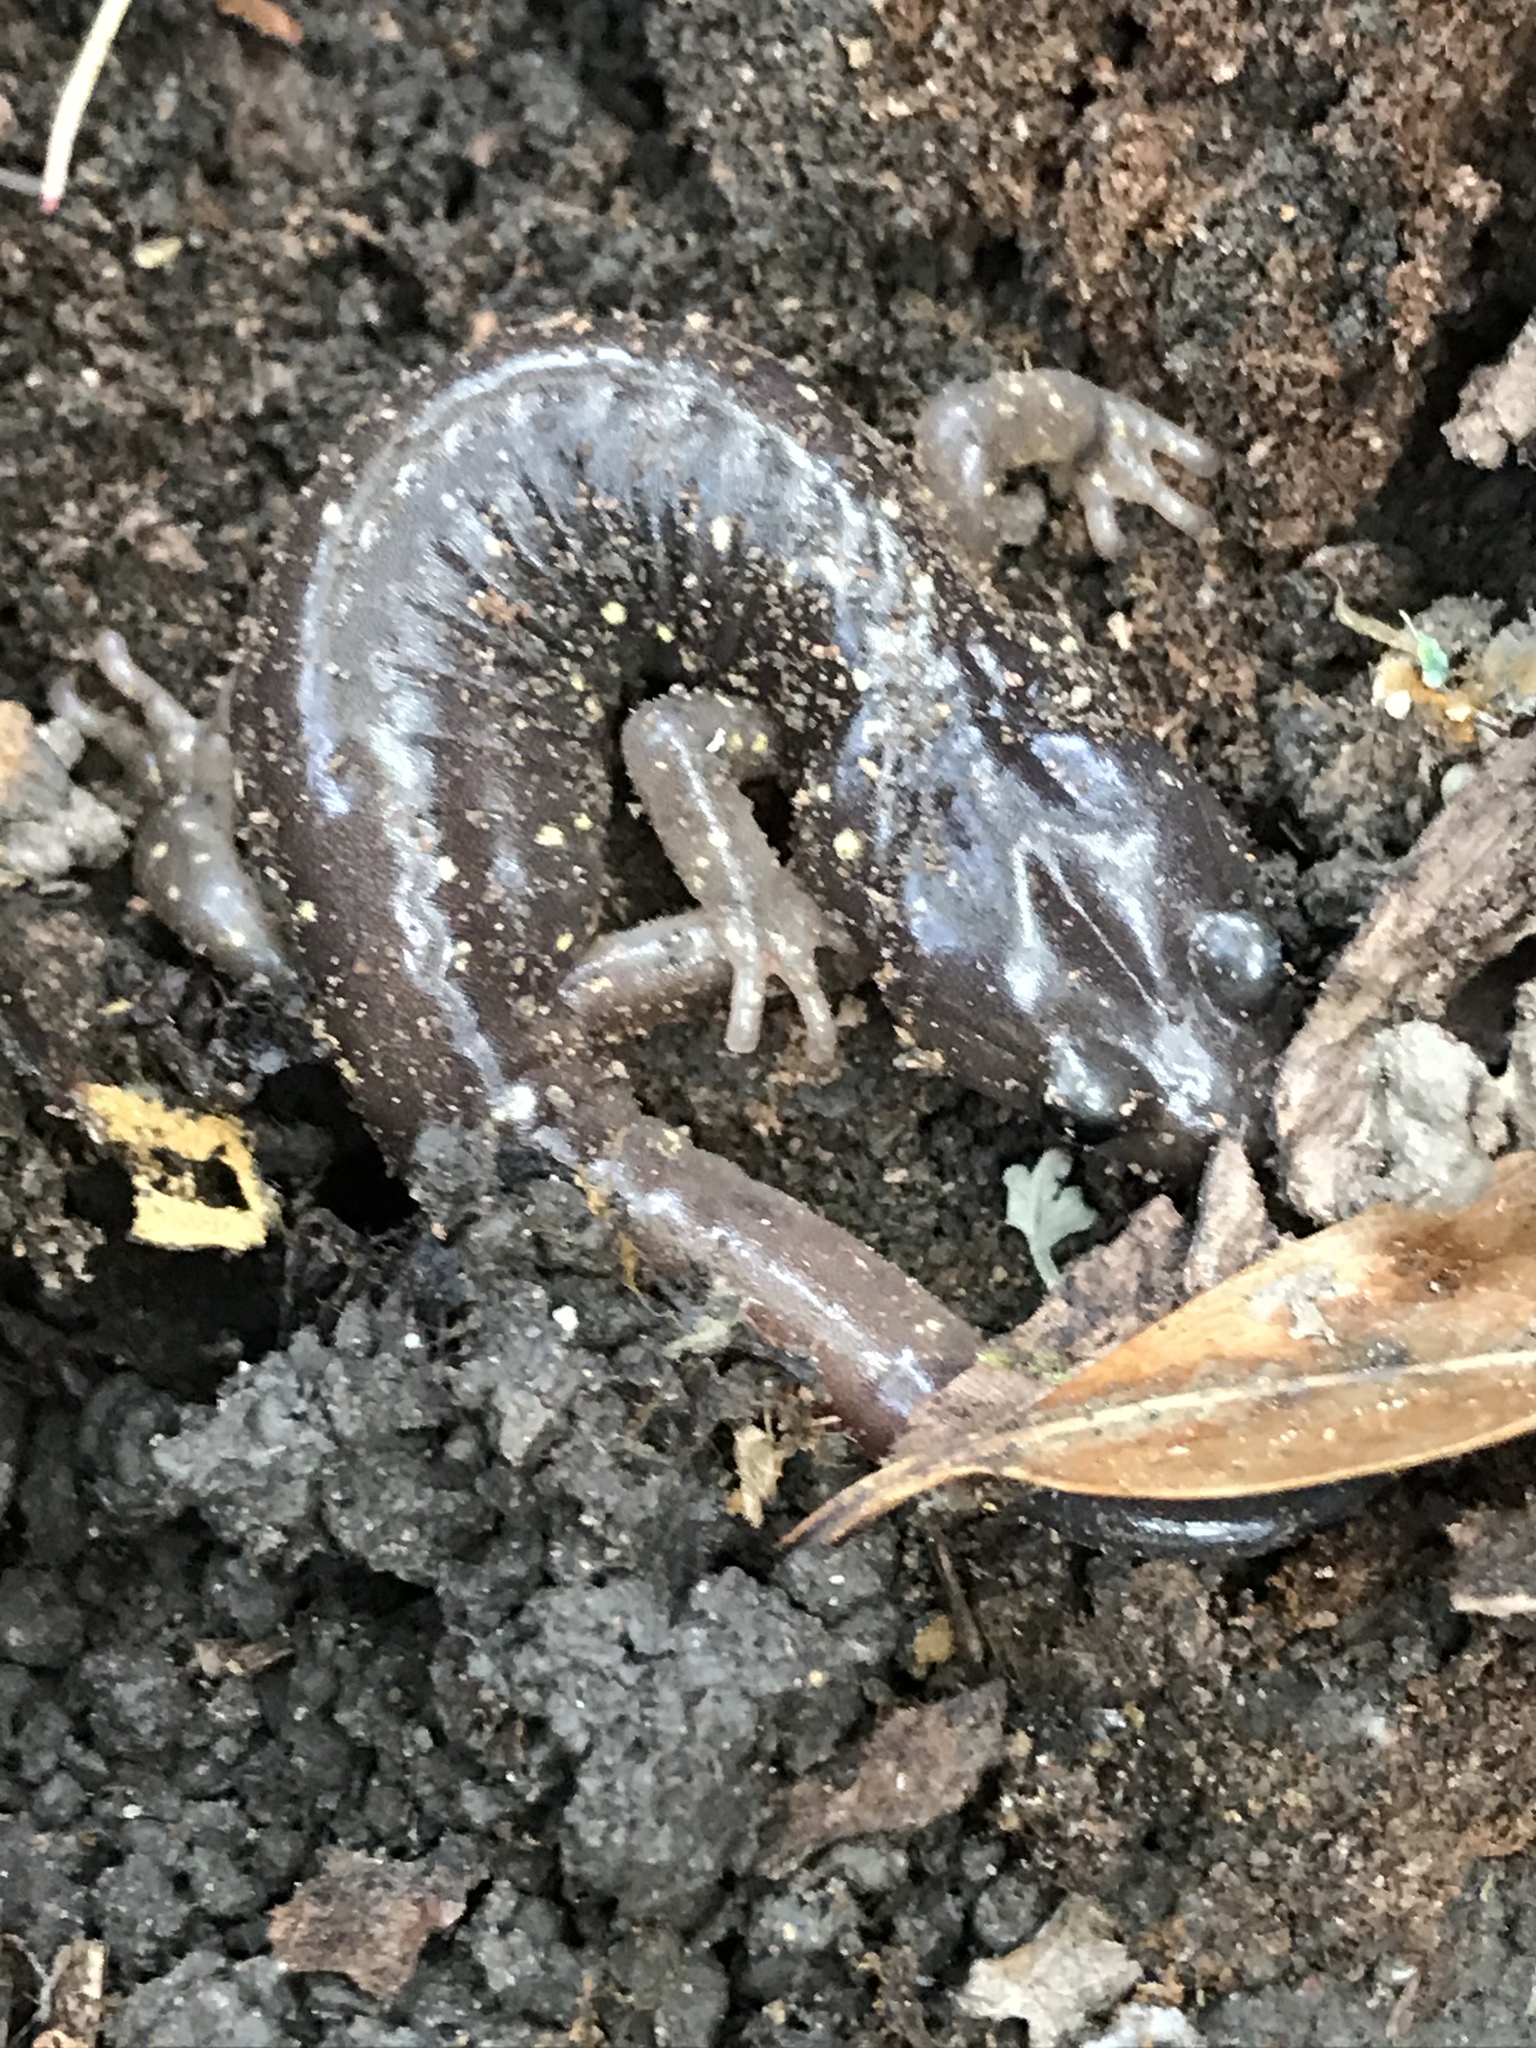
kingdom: Animalia
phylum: Chordata
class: Amphibia
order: Caudata
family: Plethodontidae
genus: Aneides
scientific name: Aneides lugubris
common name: Arboreal salamander
